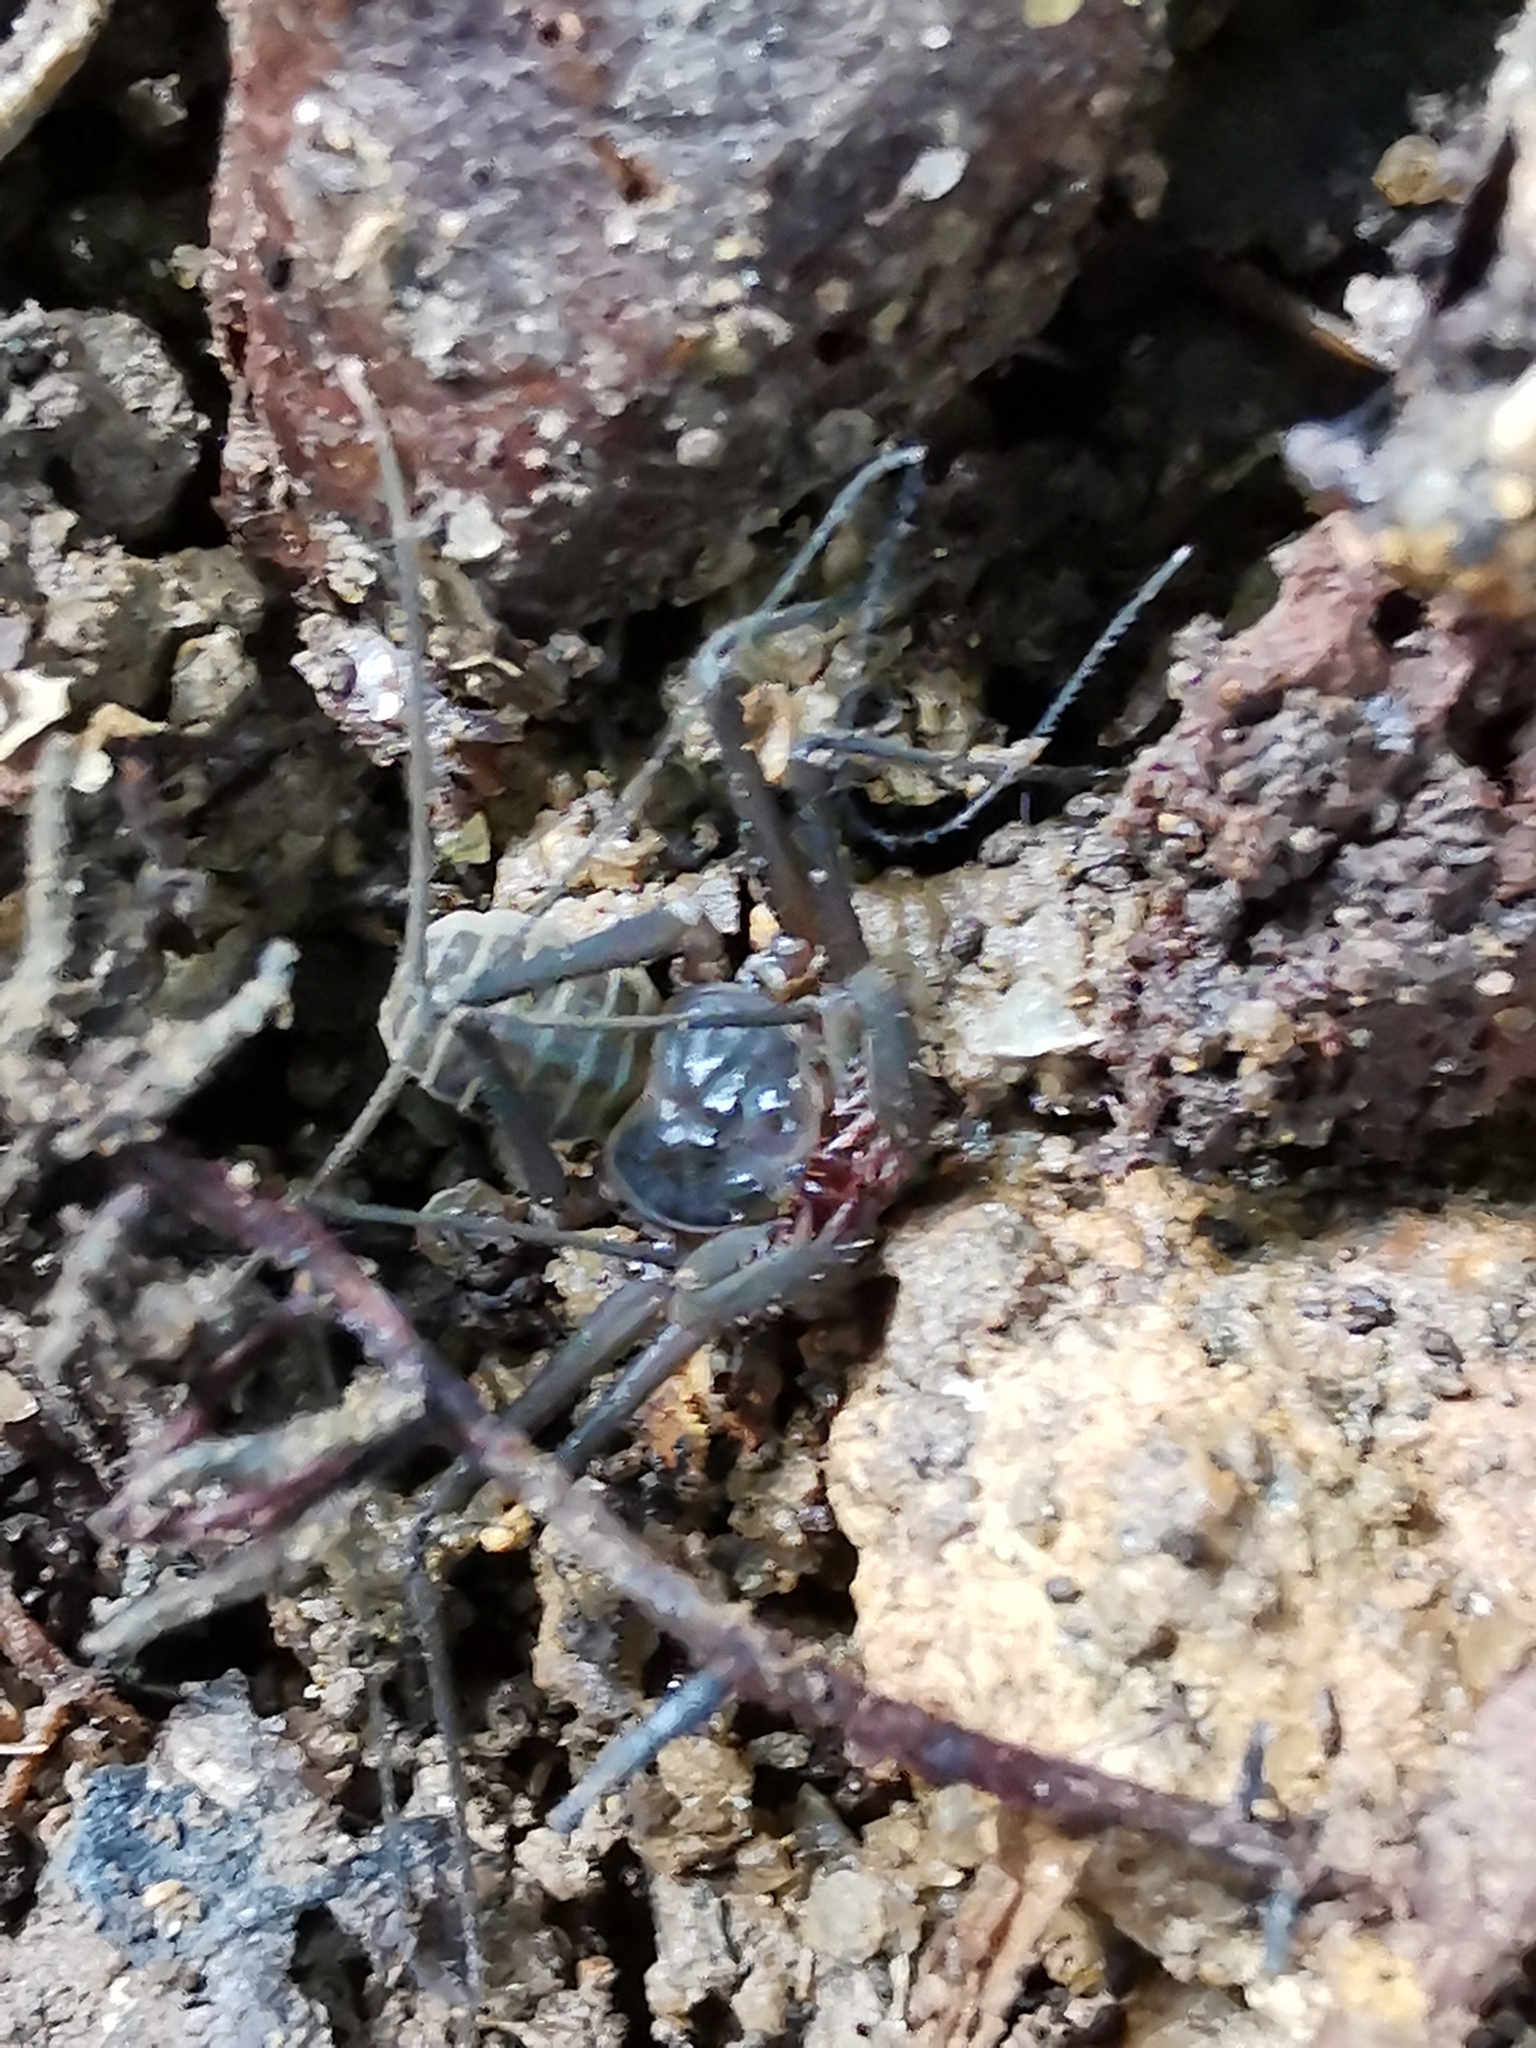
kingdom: Animalia
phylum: Arthropoda
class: Arachnida
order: Amblypygi
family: Charinidae
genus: Sarax
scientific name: Sarax seychellarum
